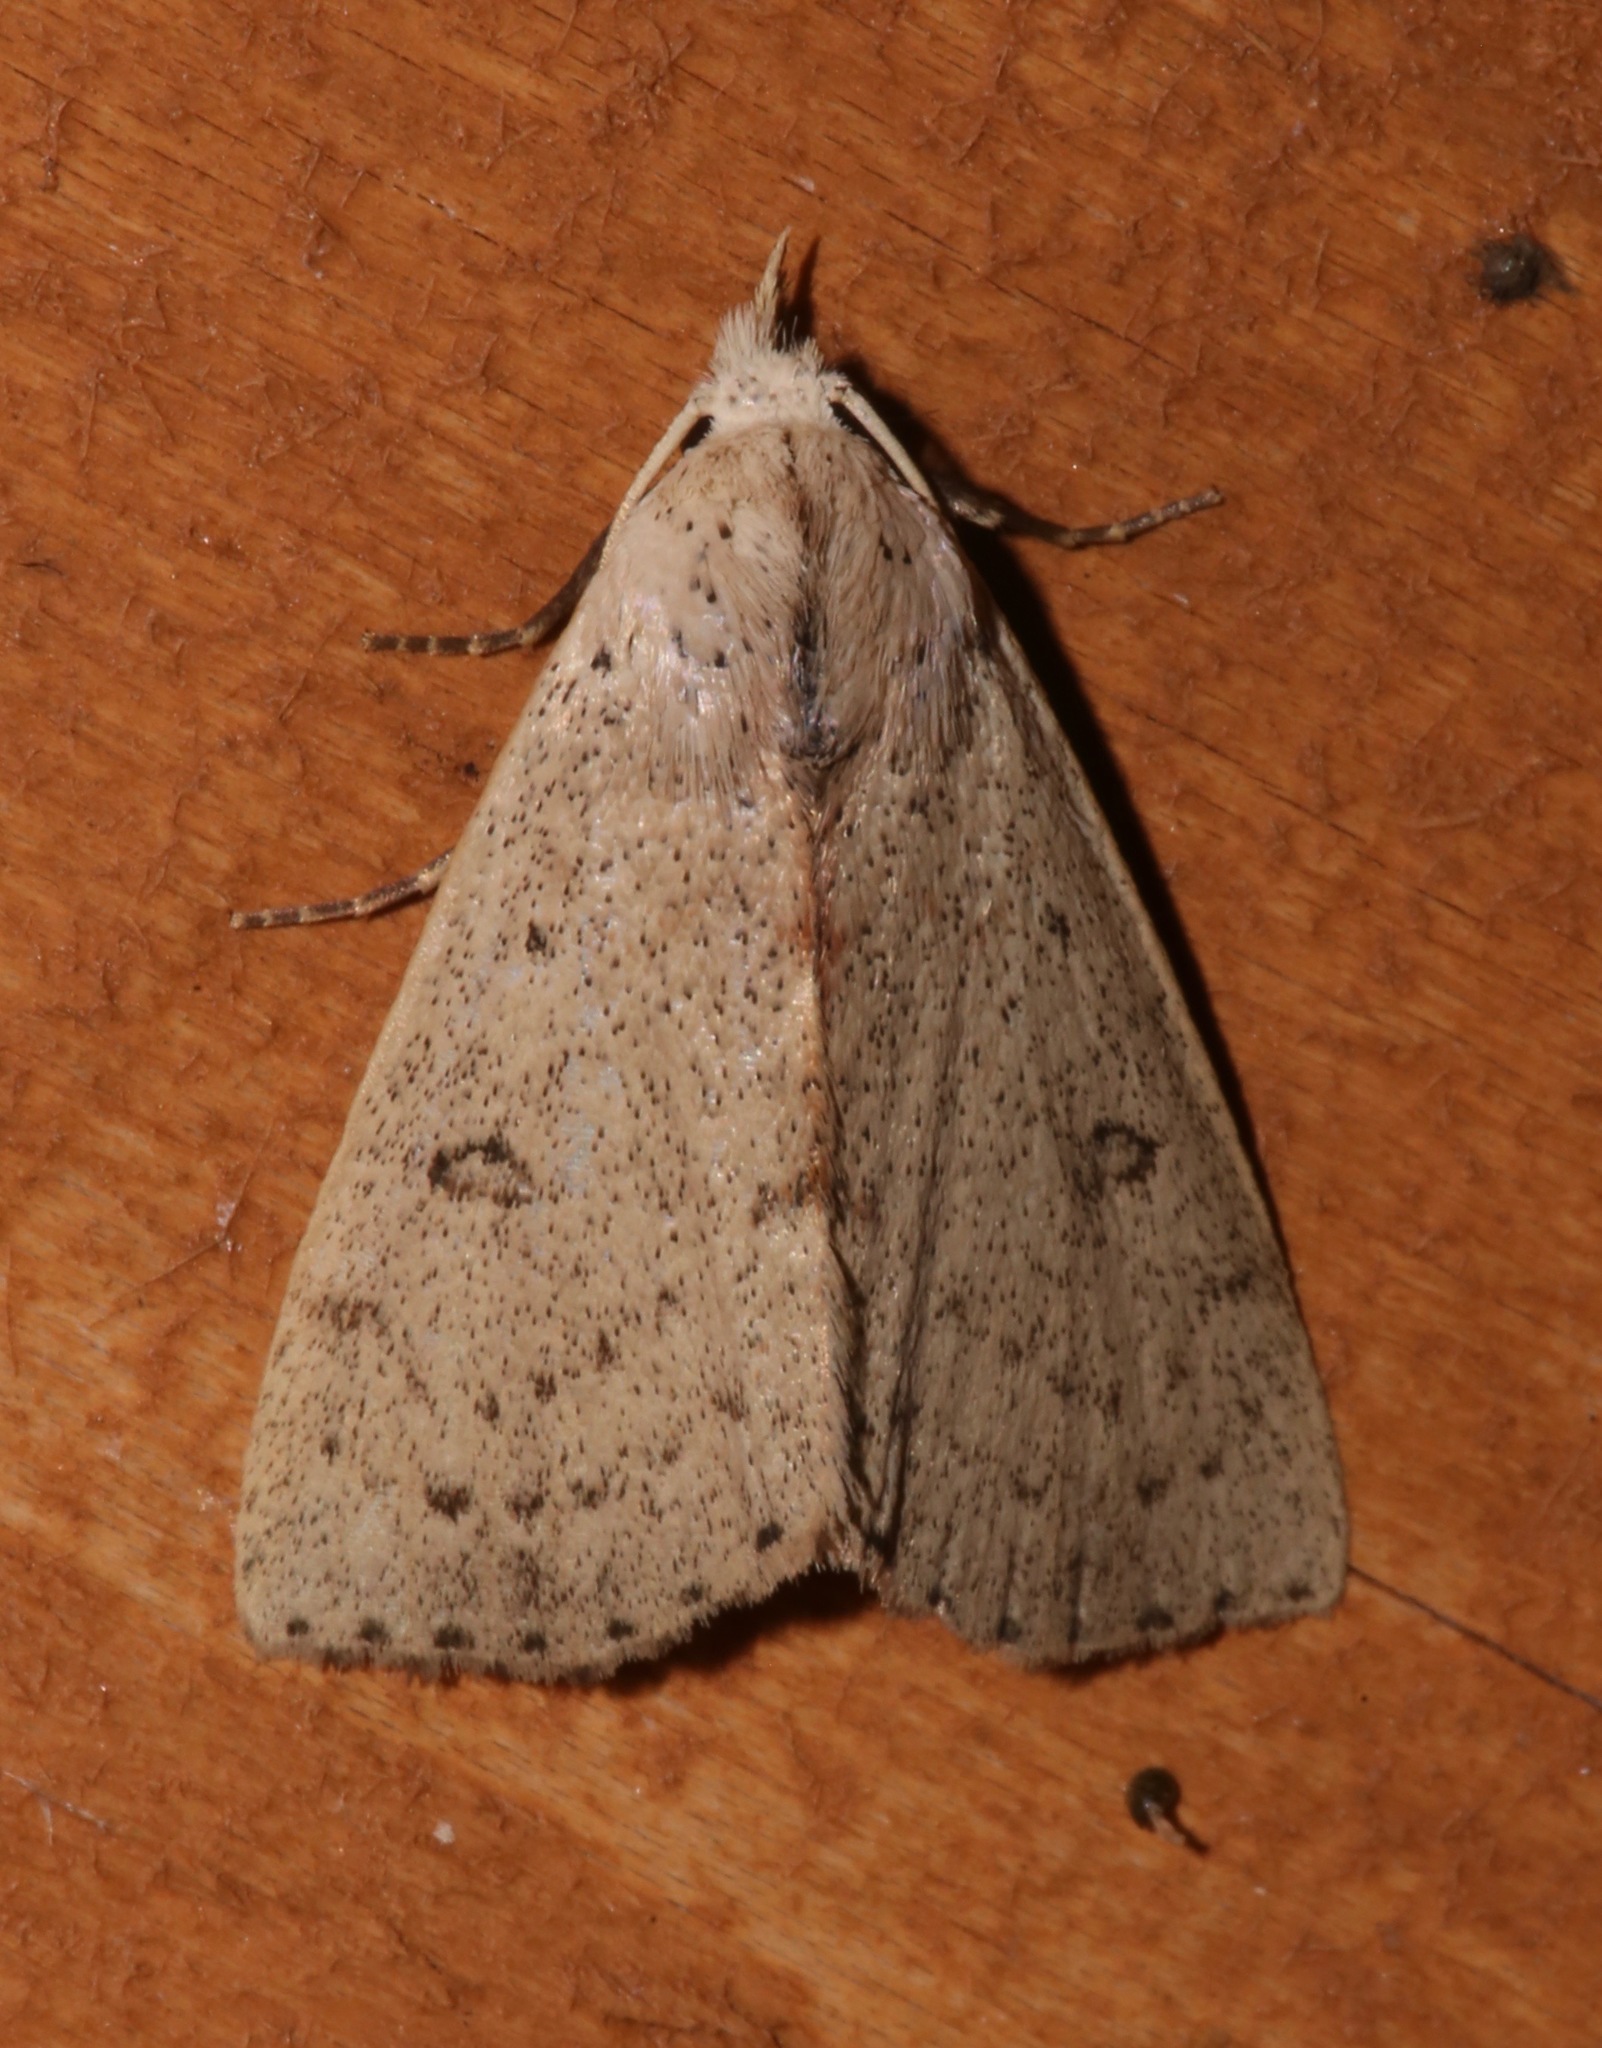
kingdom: Animalia
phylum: Arthropoda
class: Insecta
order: Lepidoptera
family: Erebidae
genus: Scolecocampa
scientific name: Scolecocampa liburna
